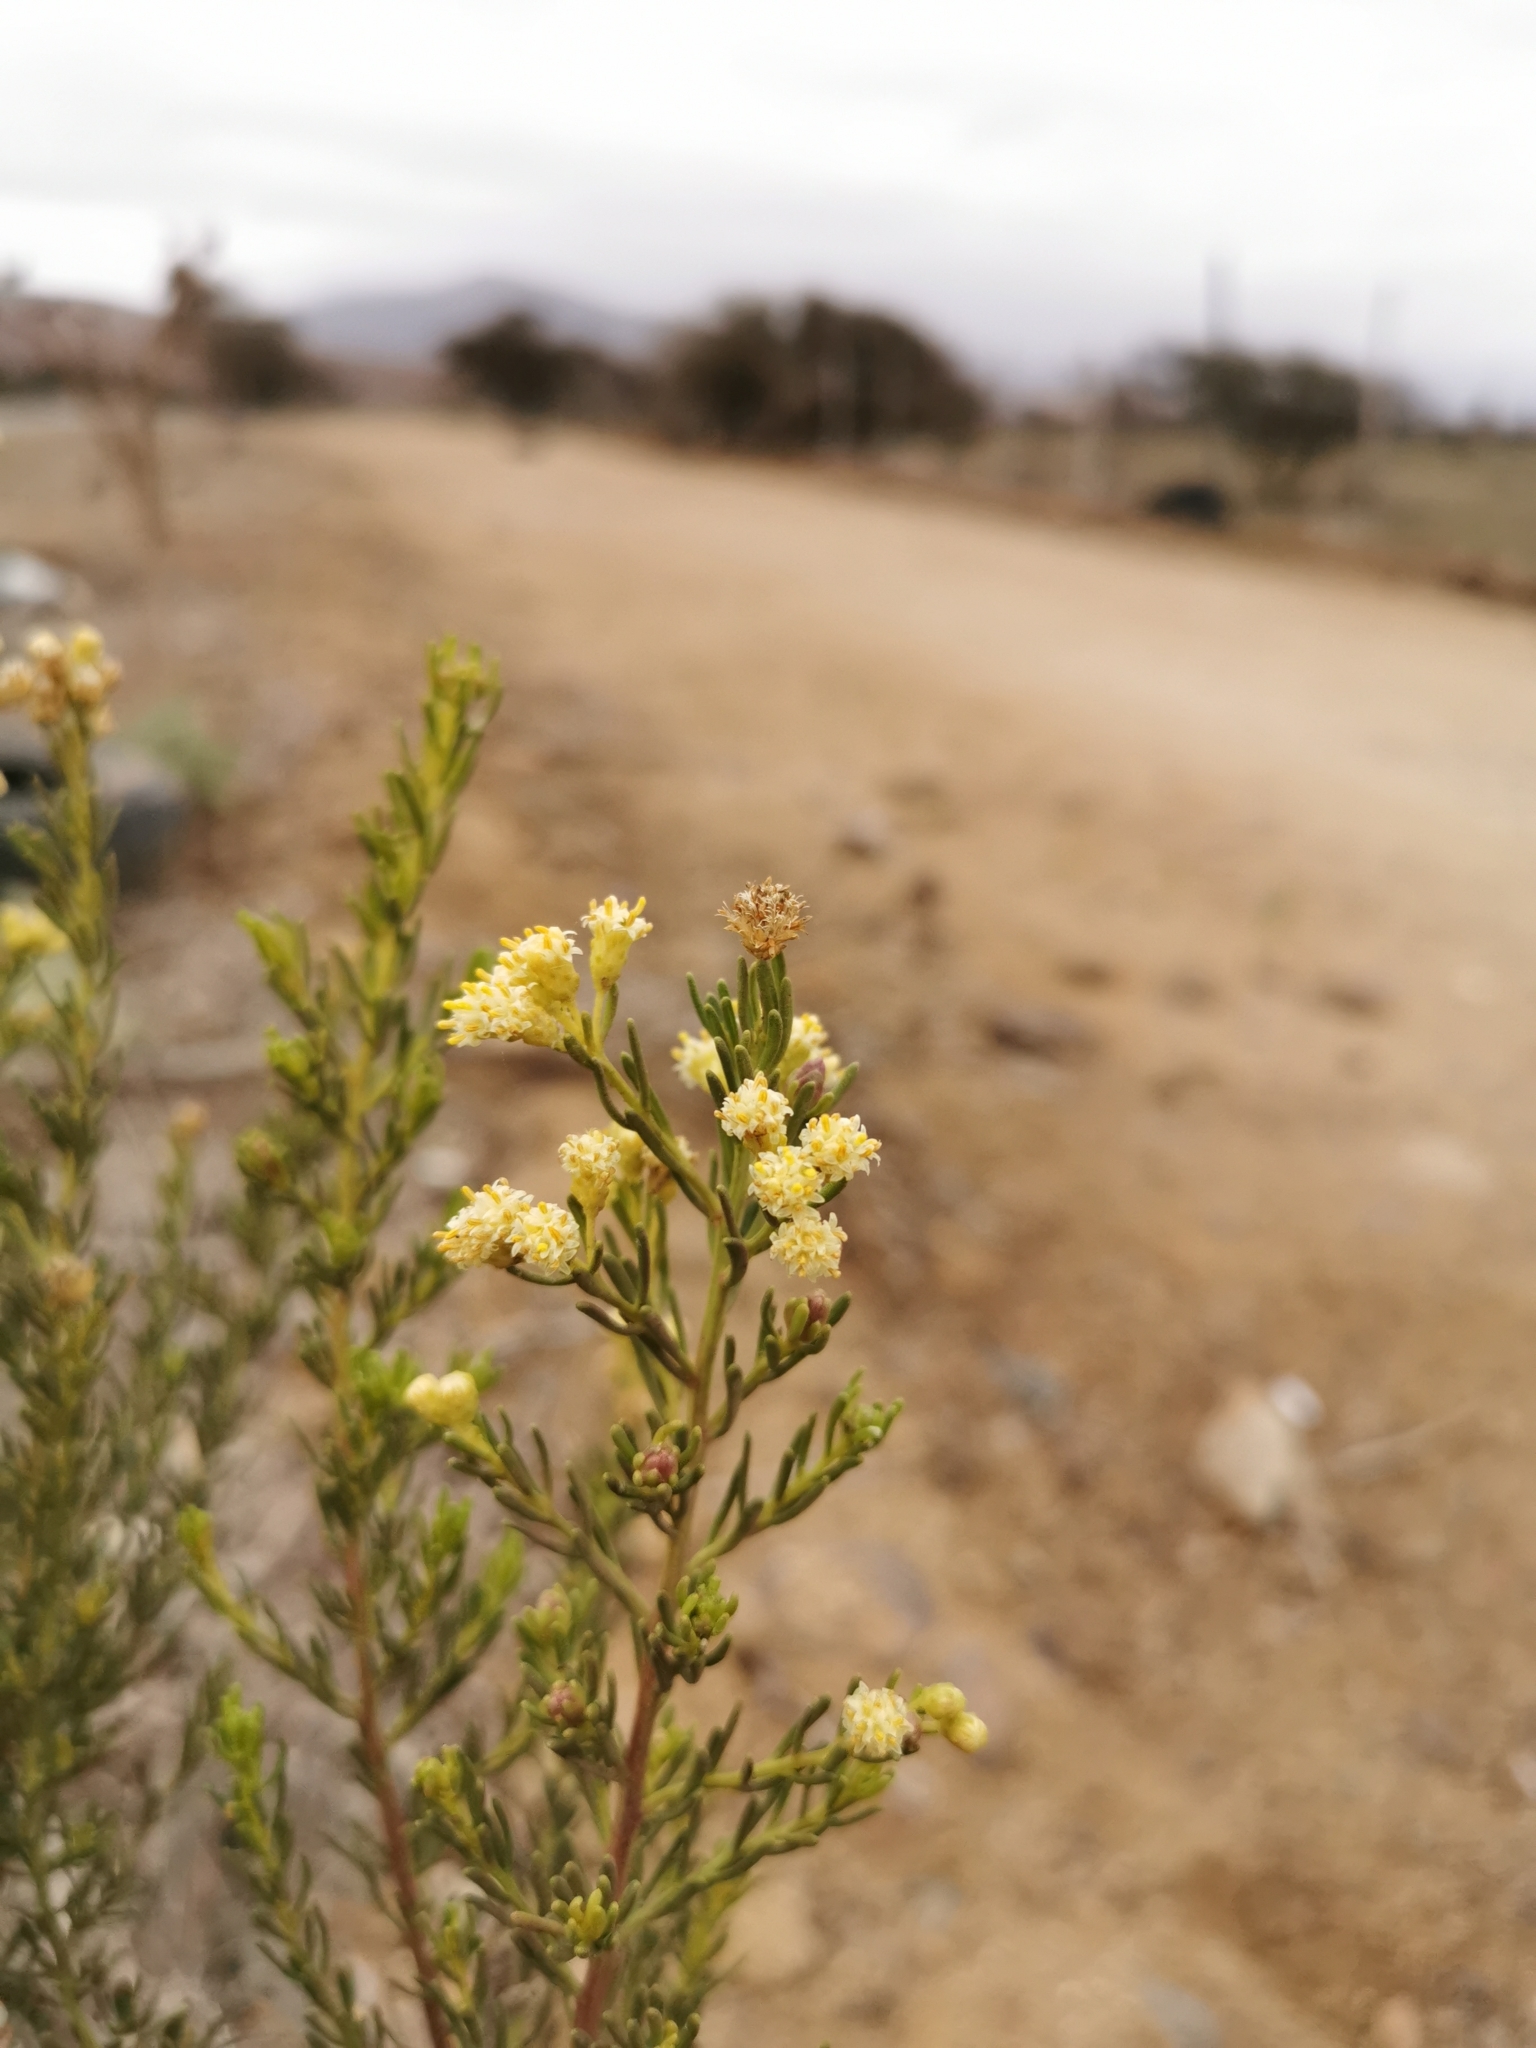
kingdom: Plantae
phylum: Tracheophyta
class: Magnoliopsida
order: Asterales
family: Asteraceae
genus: Baccharis
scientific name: Baccharis linearis
